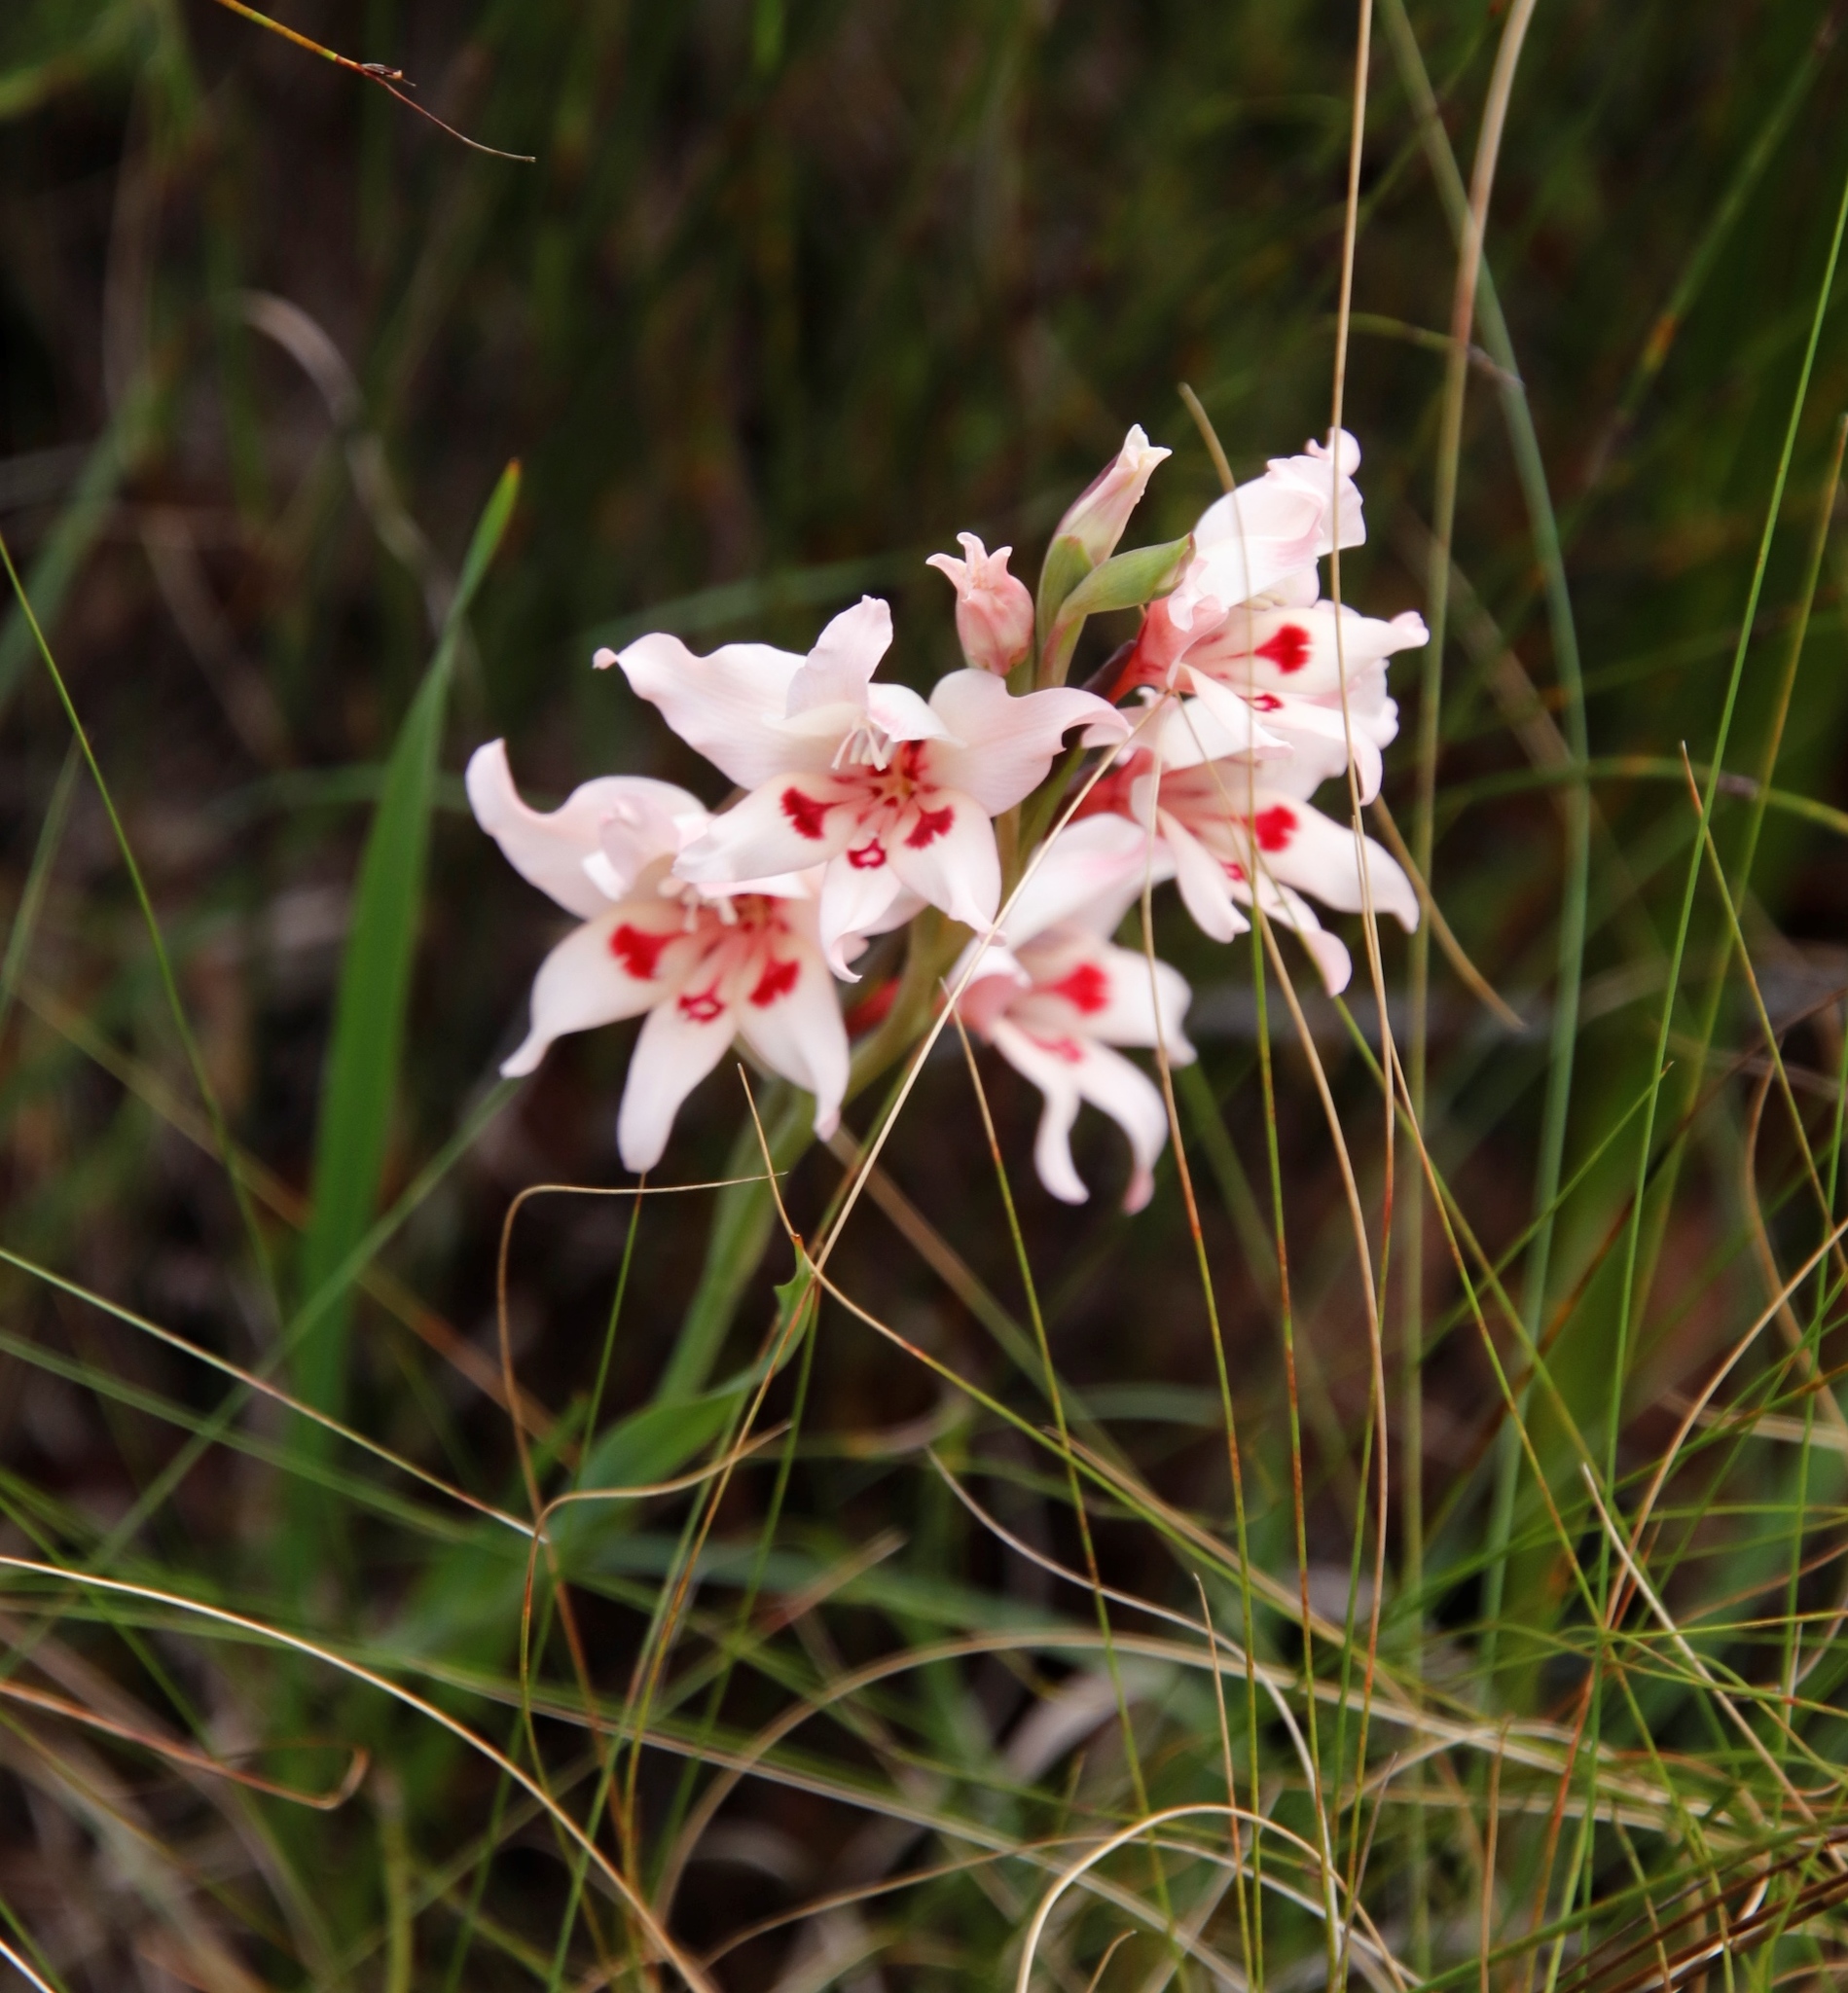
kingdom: Plantae
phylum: Tracheophyta
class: Liliopsida
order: Asparagales
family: Iridaceae
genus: Gladiolus
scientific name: Gladiolus carneus
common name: Painted-lady
